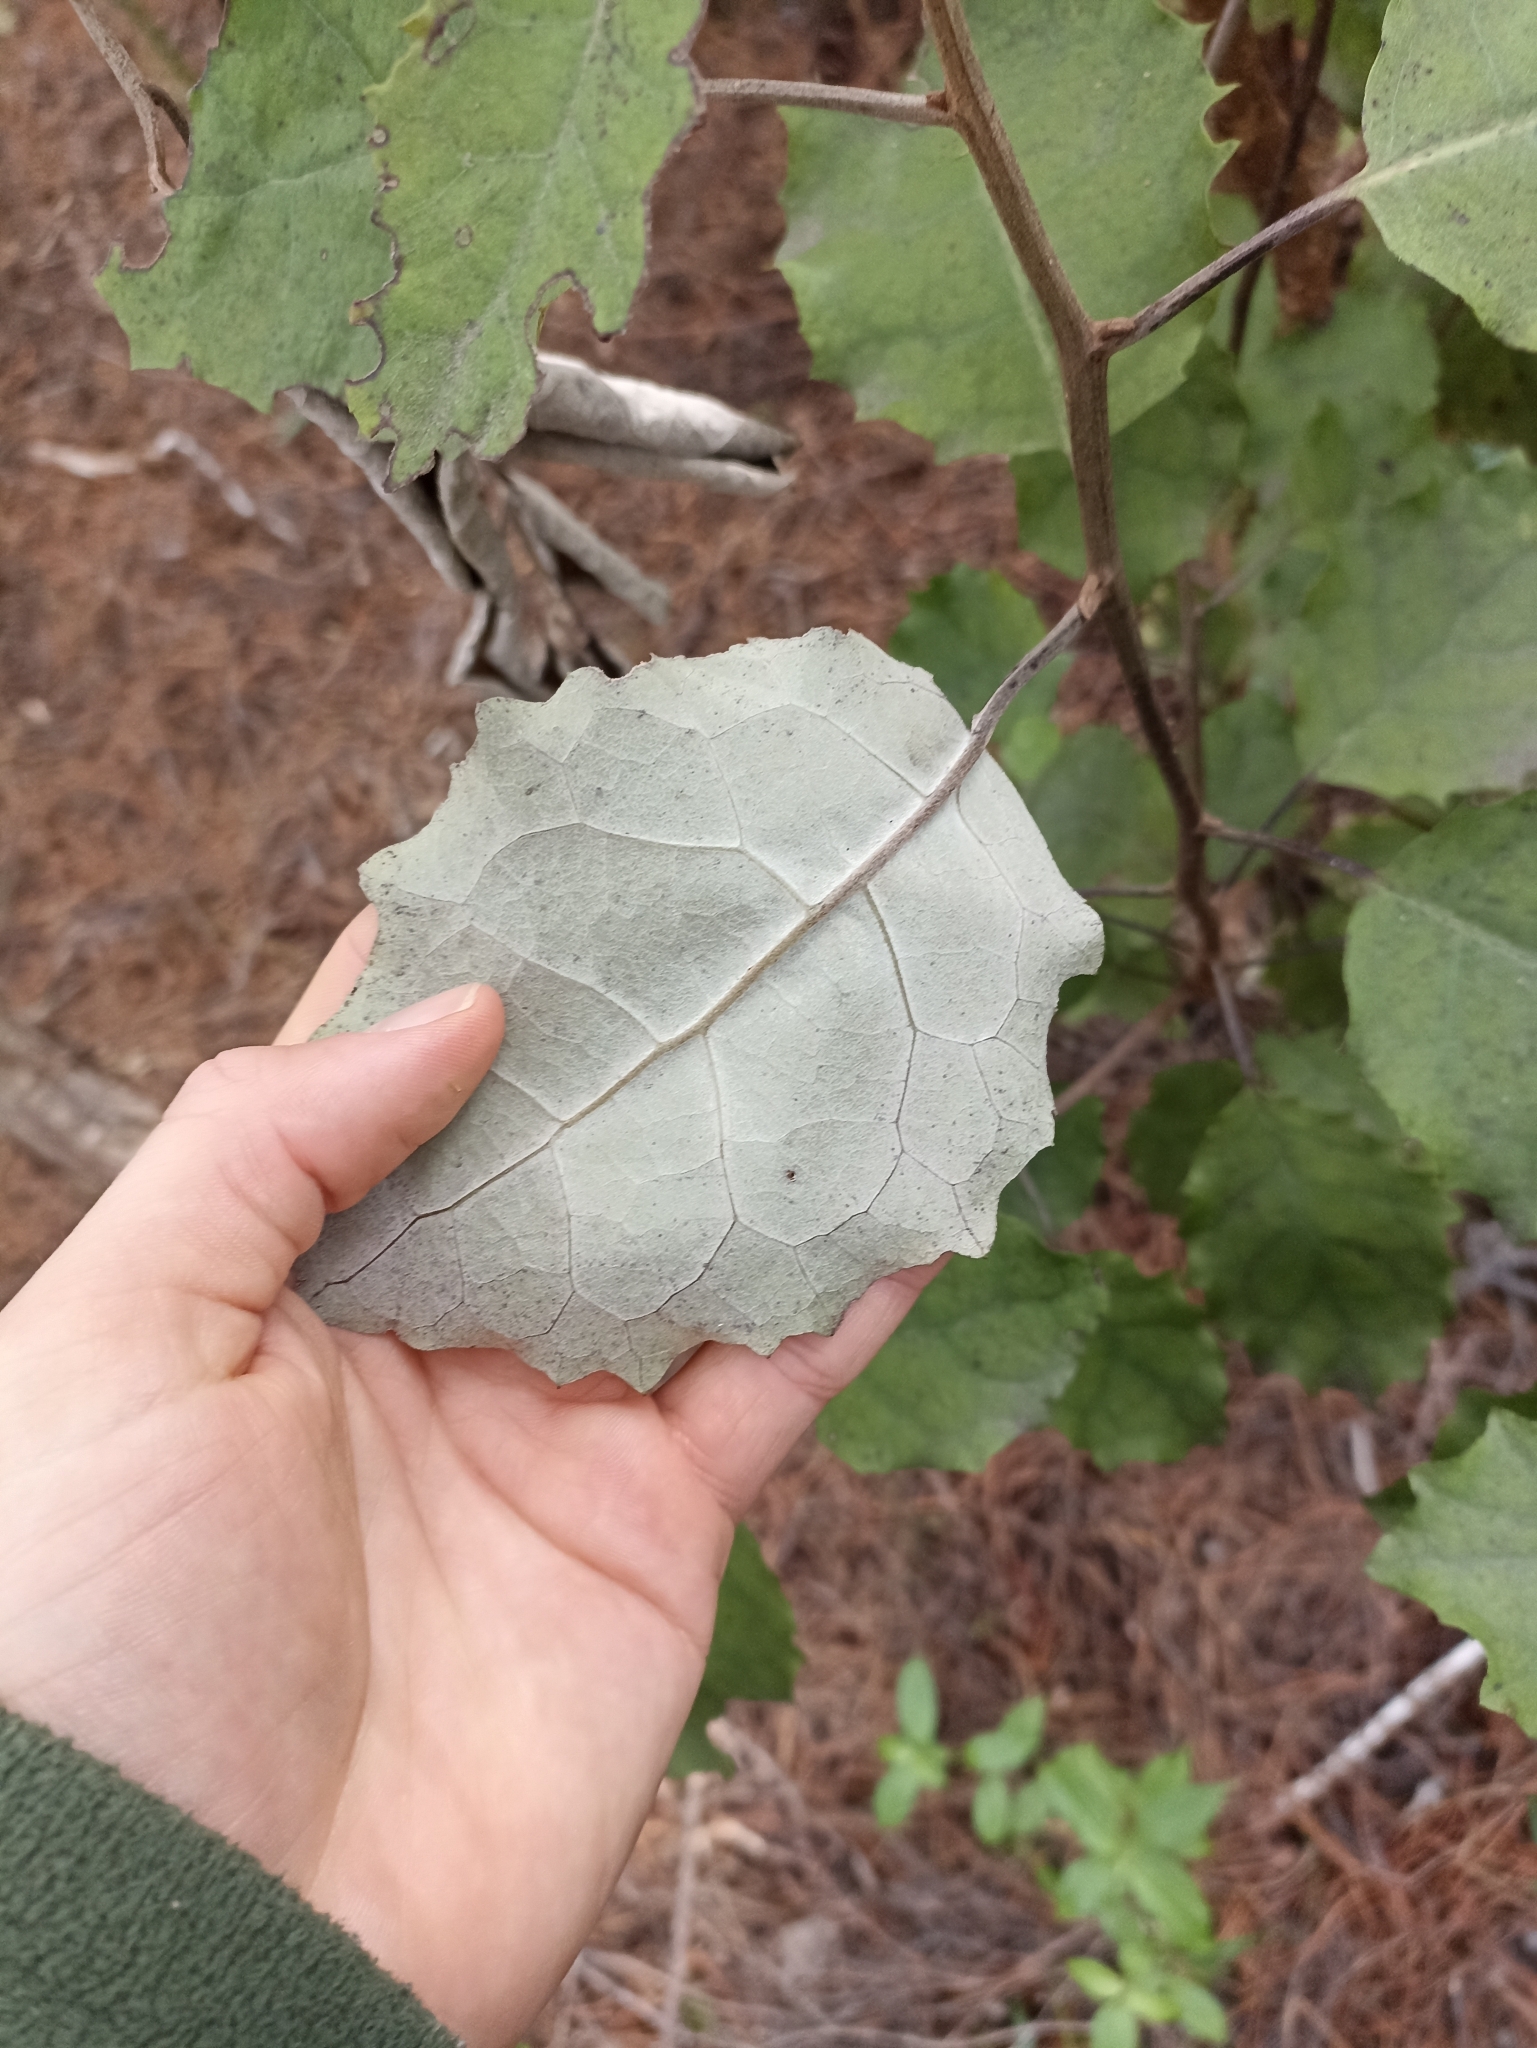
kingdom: Plantae
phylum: Tracheophyta
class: Magnoliopsida
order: Asterales
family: Asteraceae
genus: Brachyglottis
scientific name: Brachyglottis repanda
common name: Hedge ragwort
